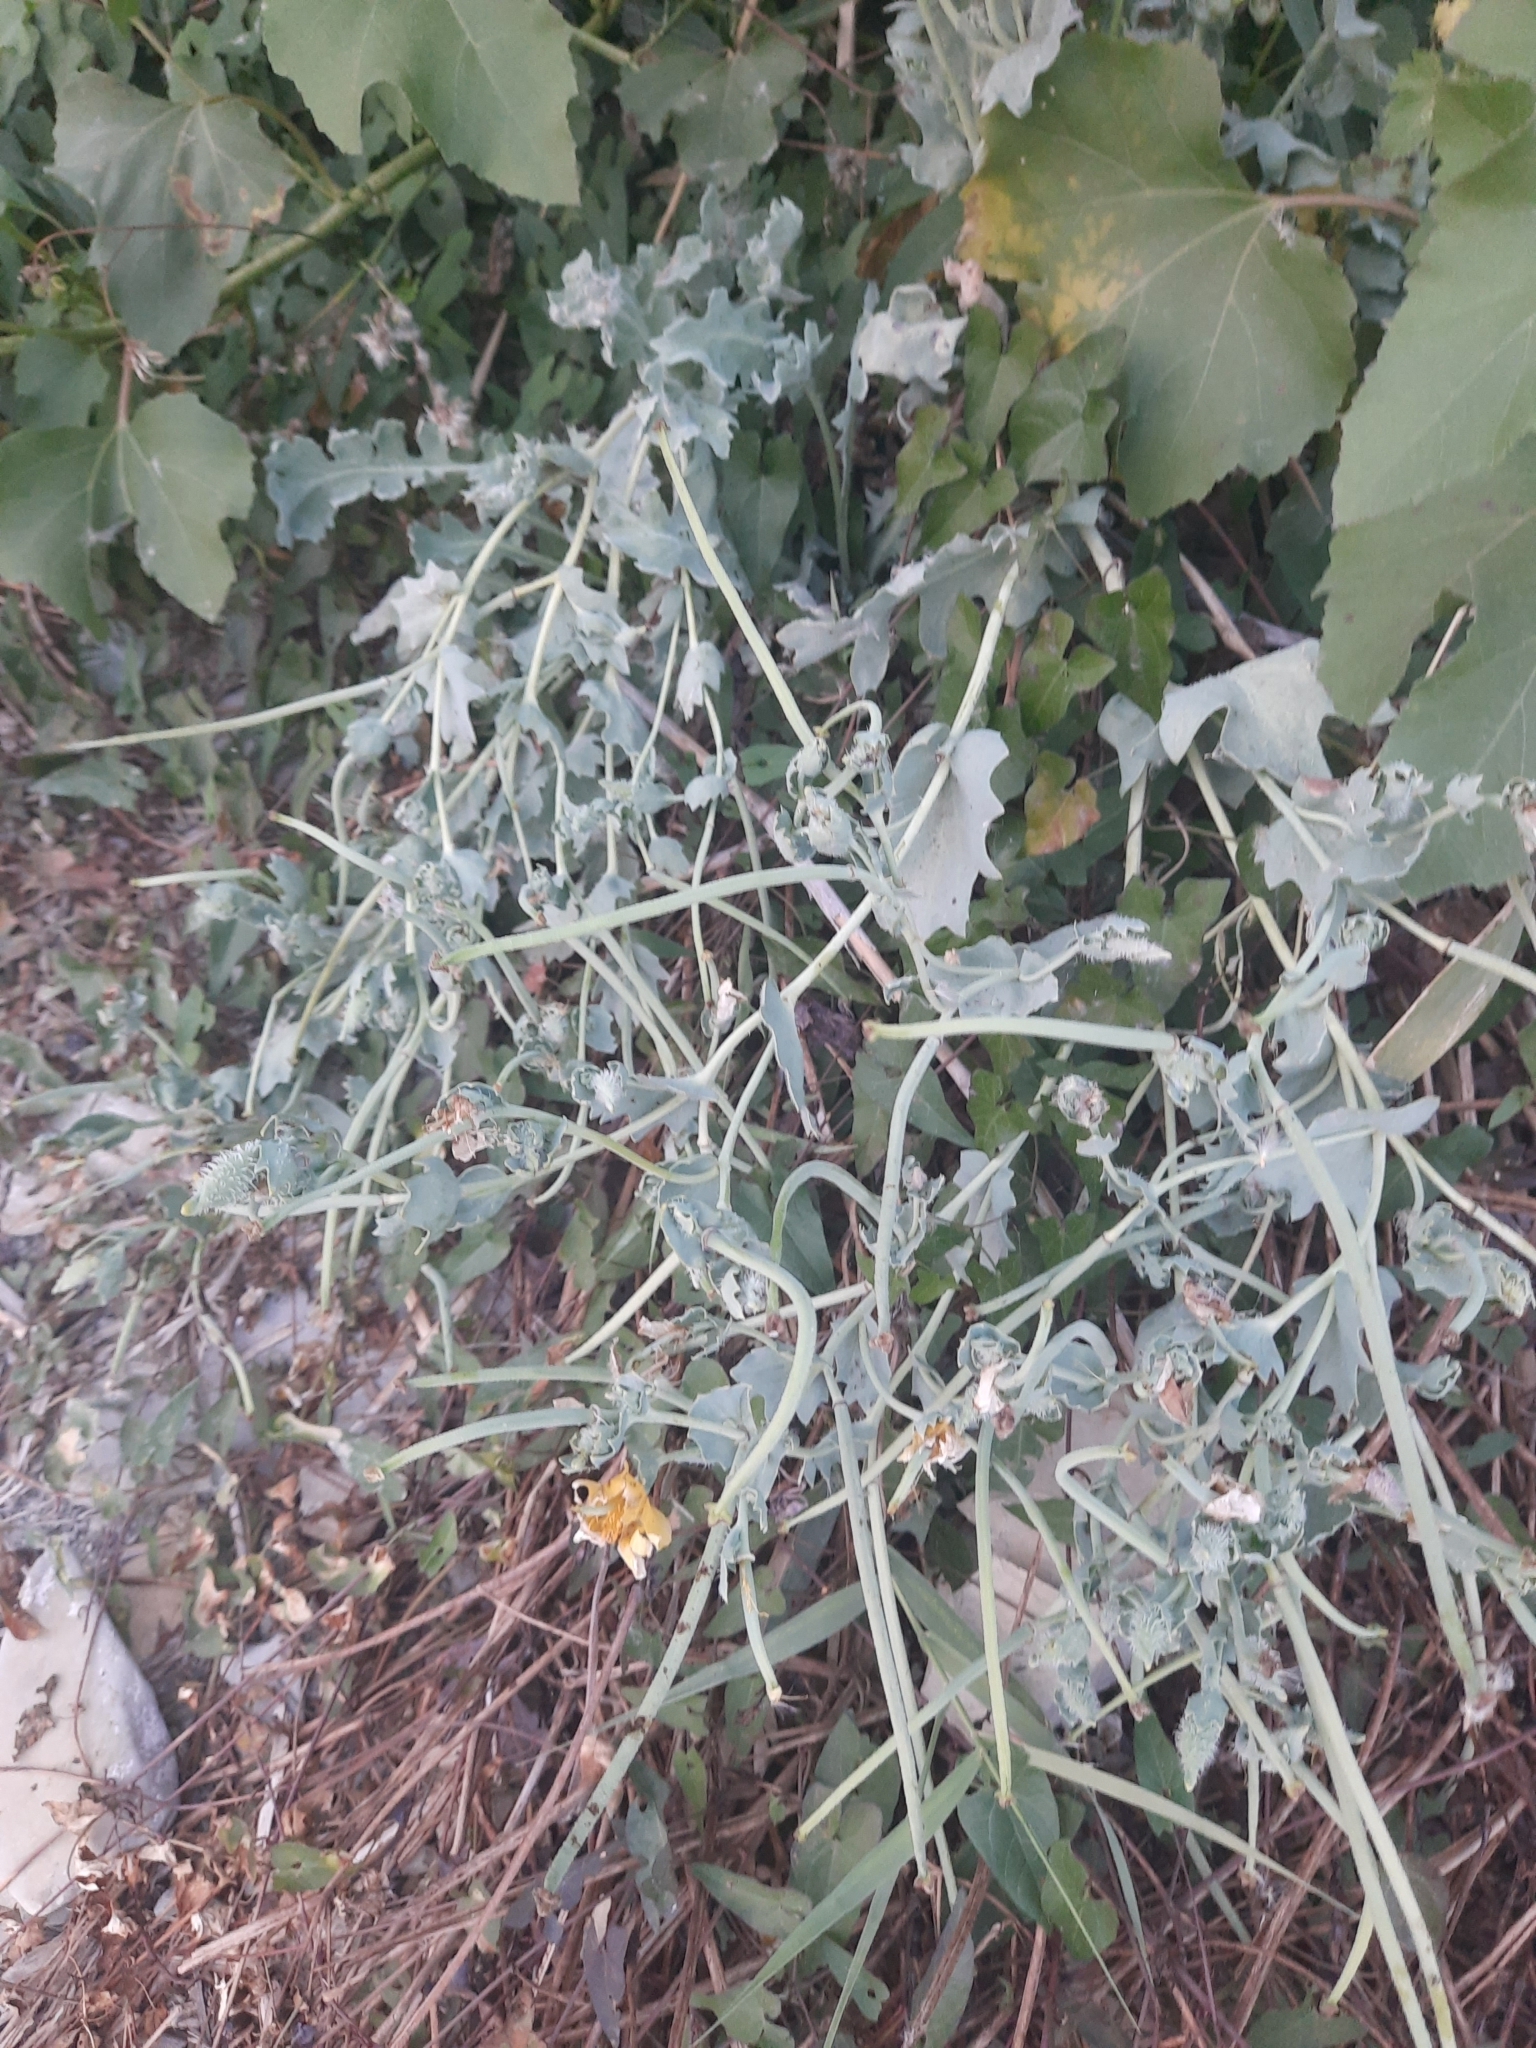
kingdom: Plantae
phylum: Tracheophyta
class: Magnoliopsida
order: Ranunculales
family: Papaveraceae
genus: Glaucium
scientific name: Glaucium flavum
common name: Yellow horned-poppy
